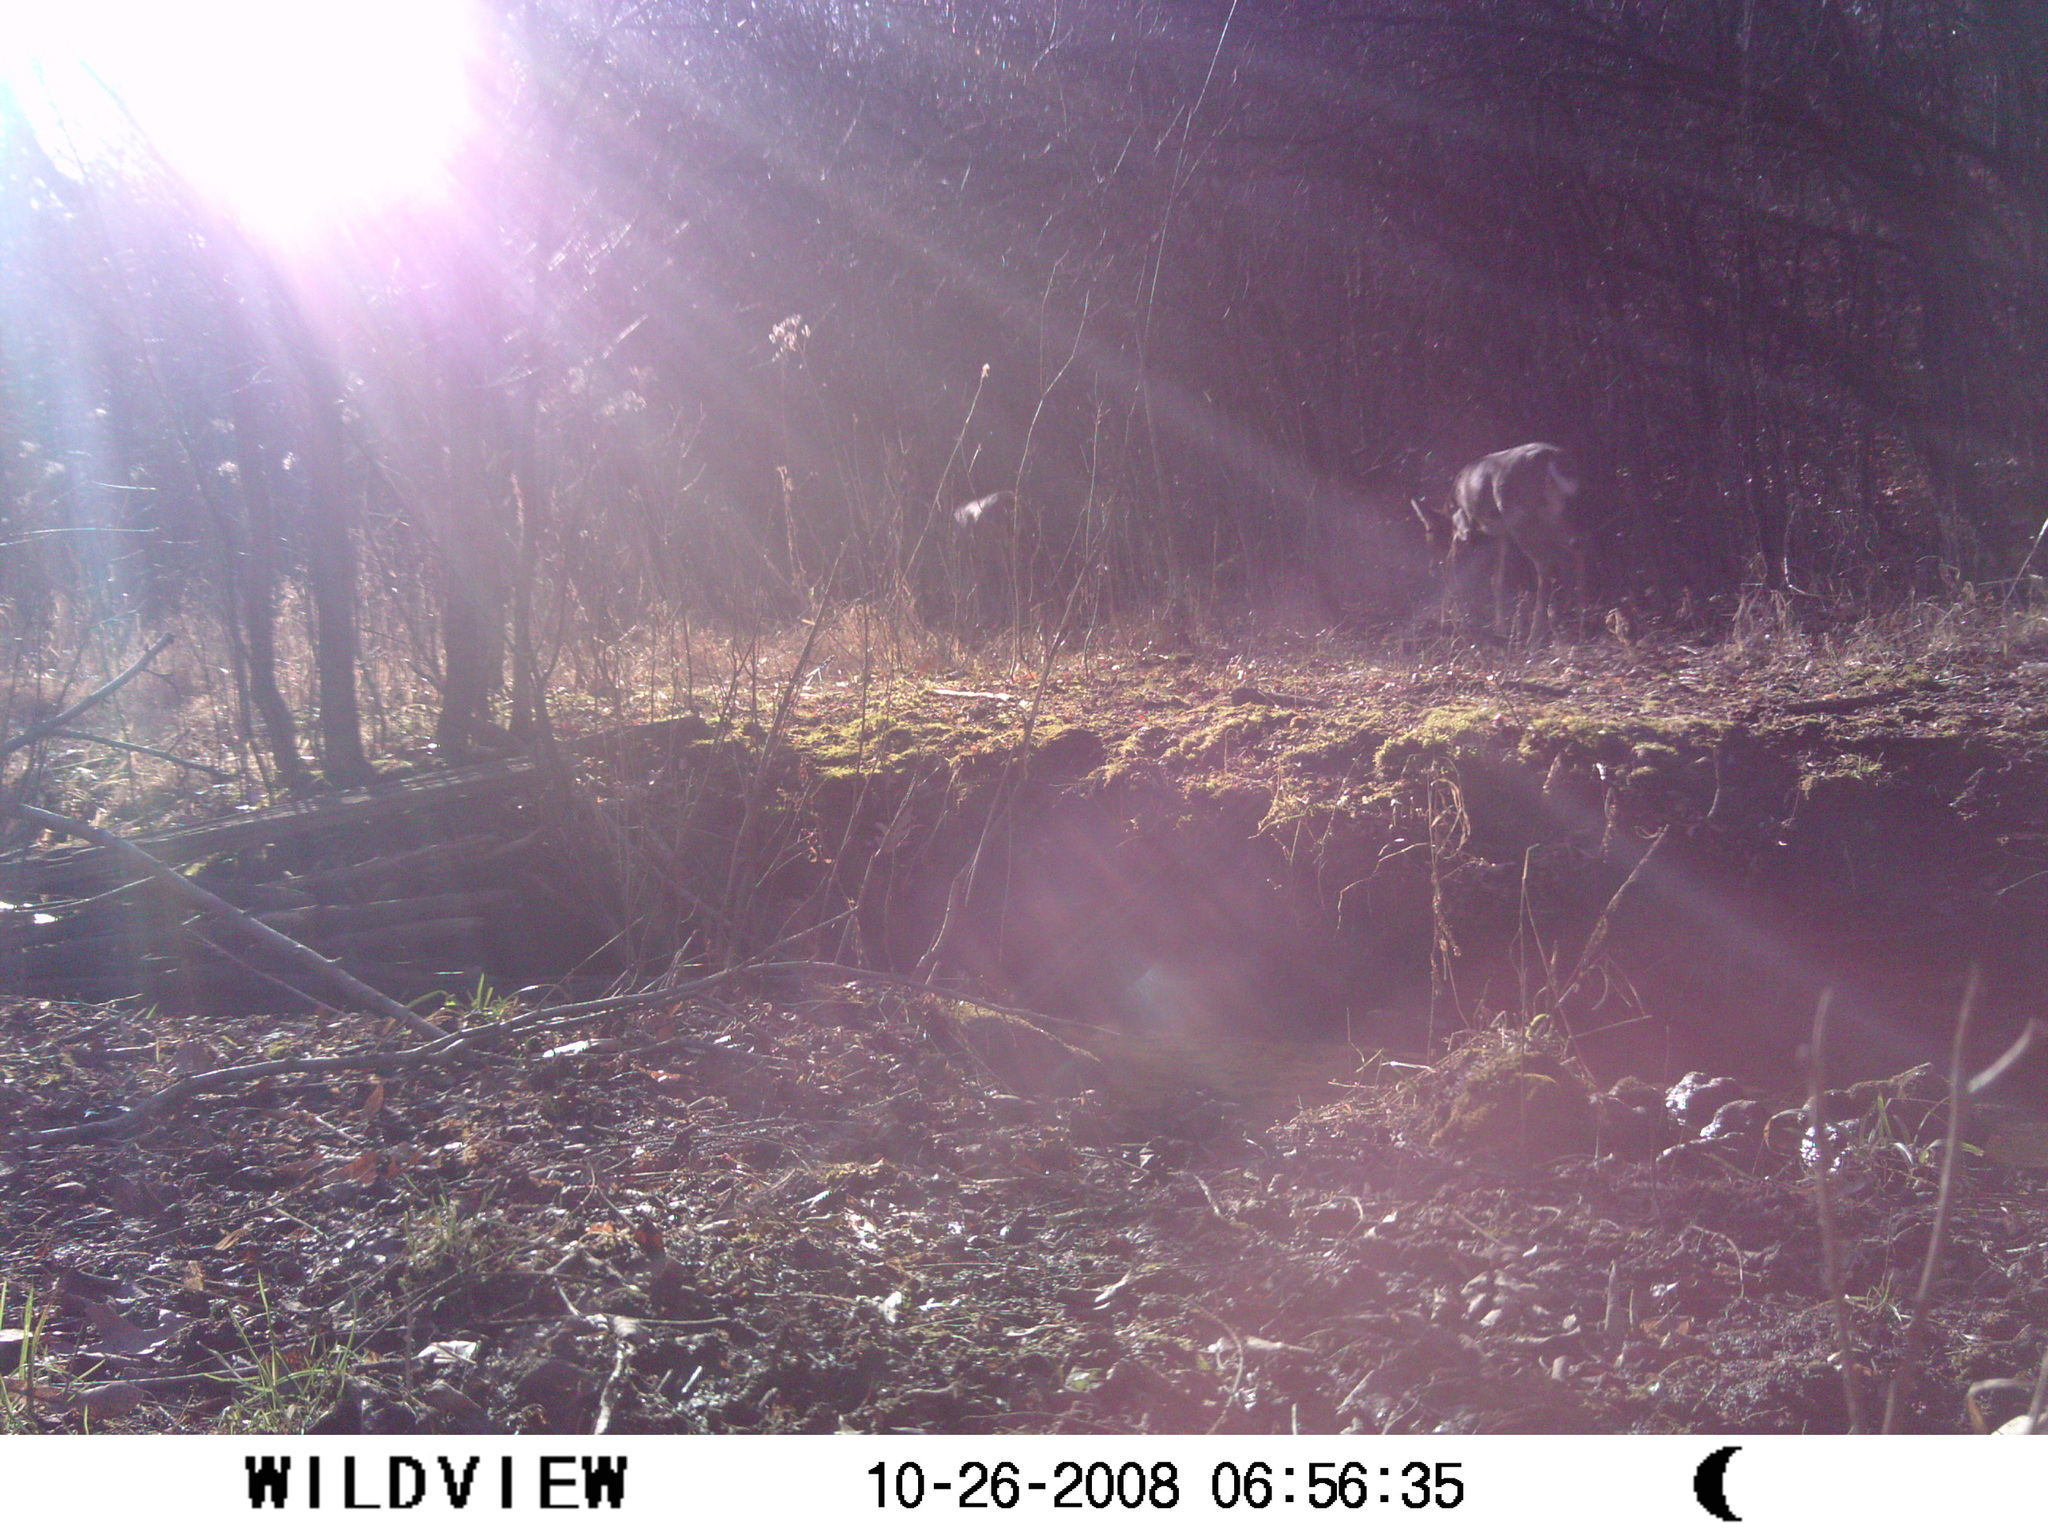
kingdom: Animalia
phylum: Chordata
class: Mammalia
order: Artiodactyla
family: Cervidae
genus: Odocoileus
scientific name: Odocoileus virginianus
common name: White-tailed deer
